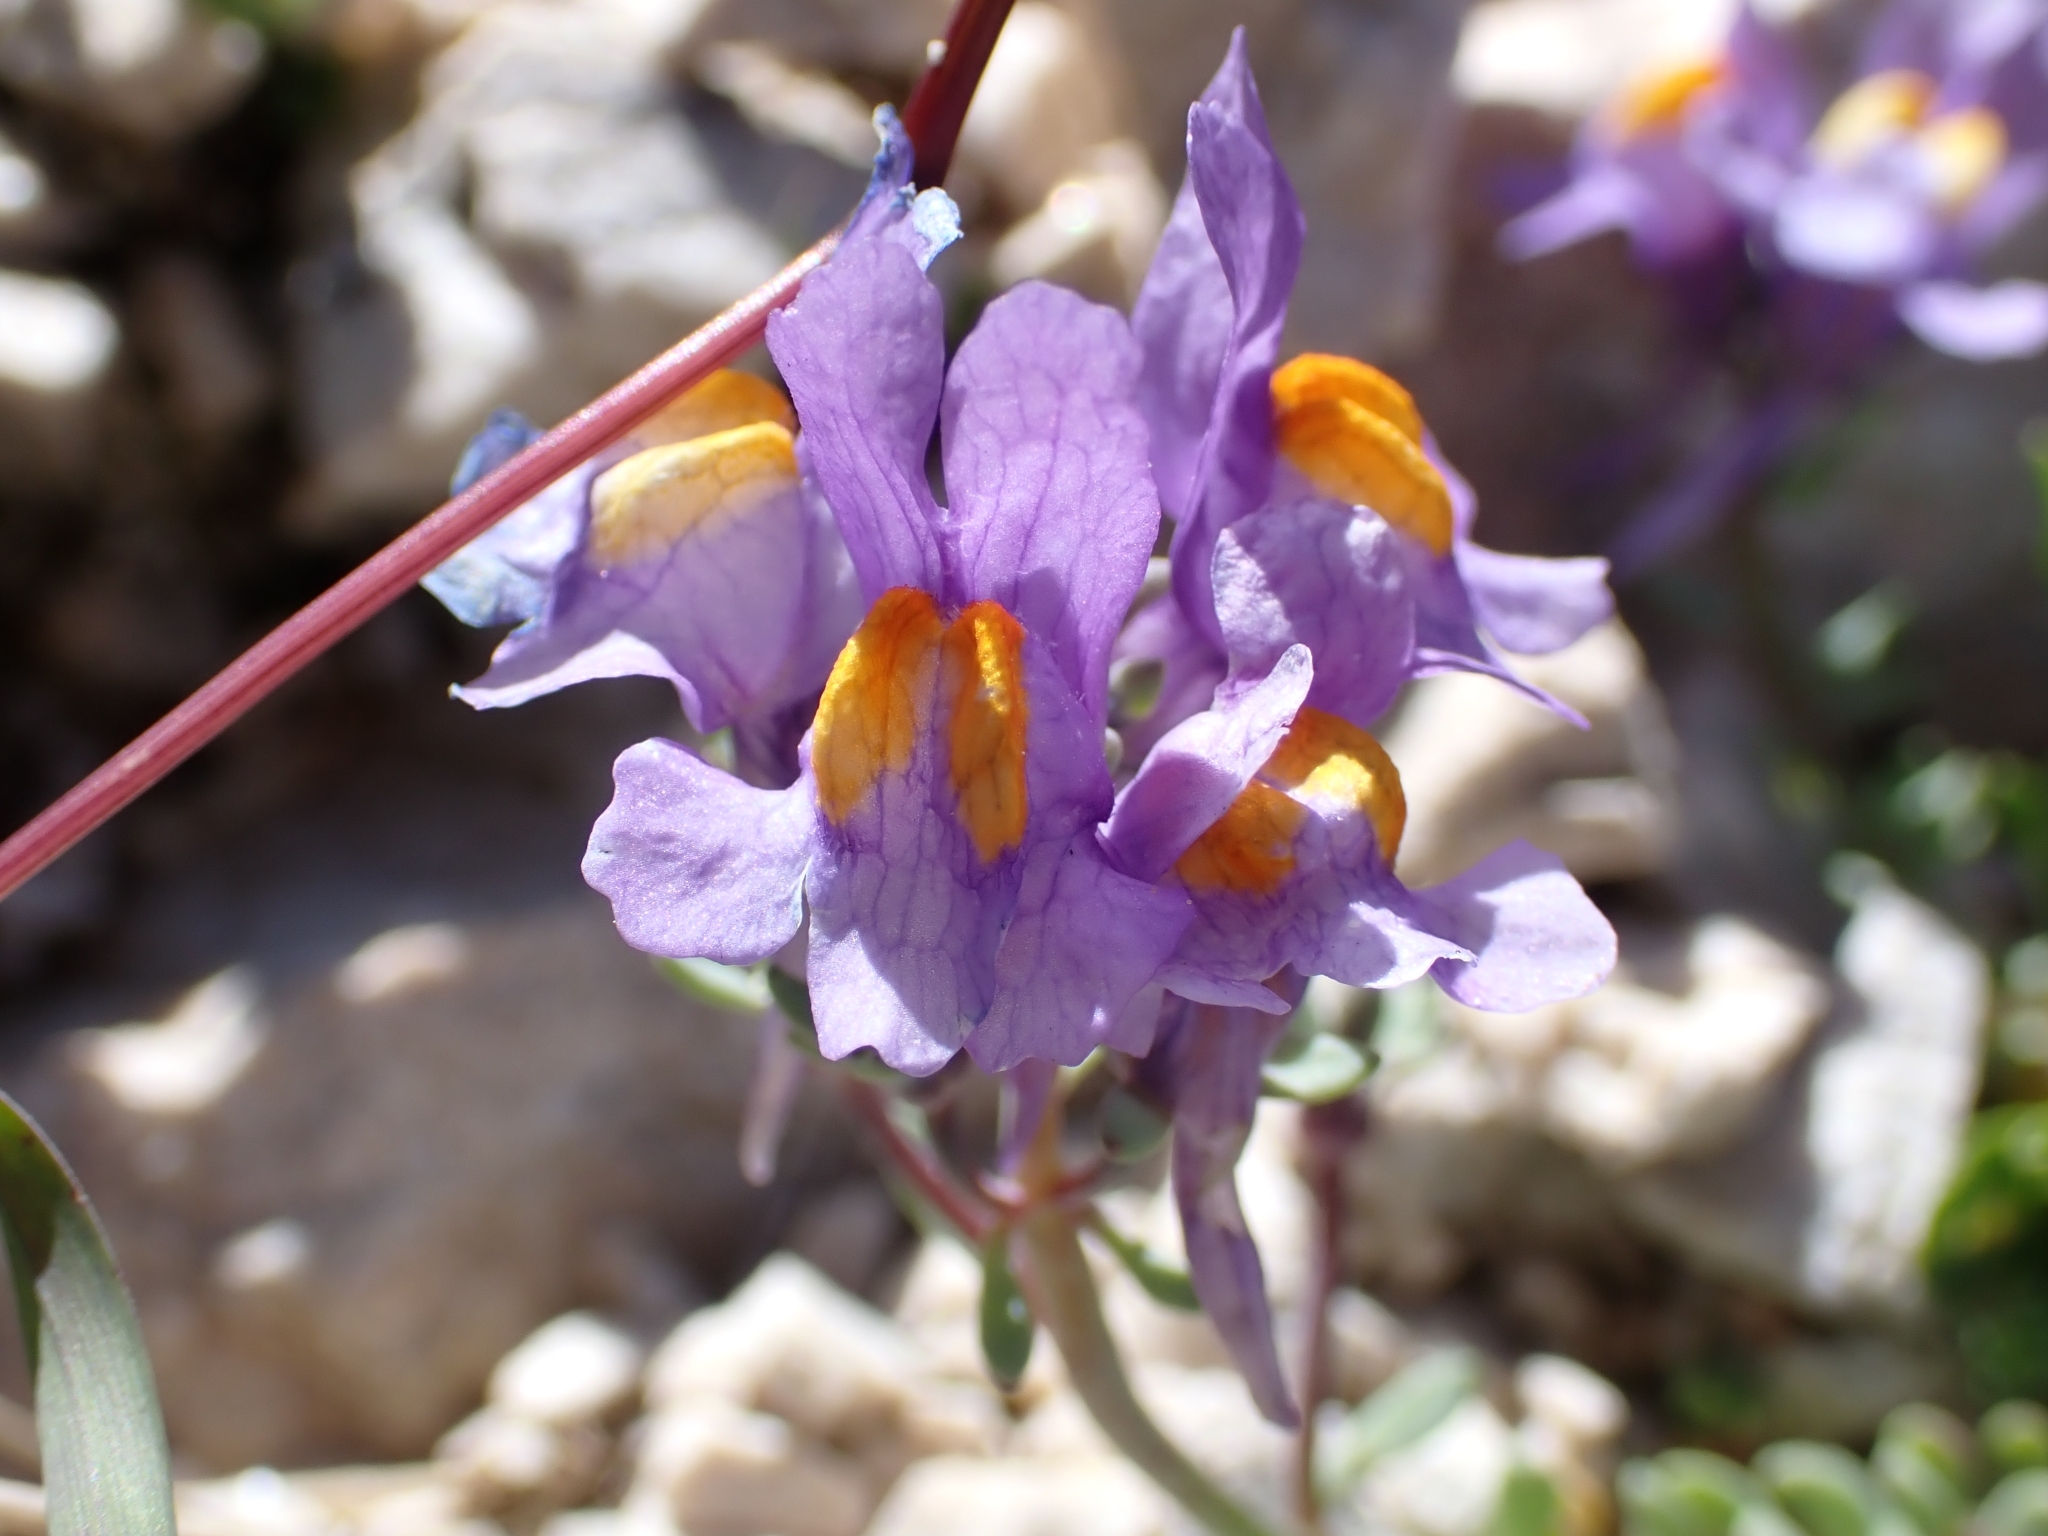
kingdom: Plantae
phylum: Tracheophyta
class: Magnoliopsida
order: Lamiales
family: Plantaginaceae
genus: Linaria
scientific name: Linaria alpina
